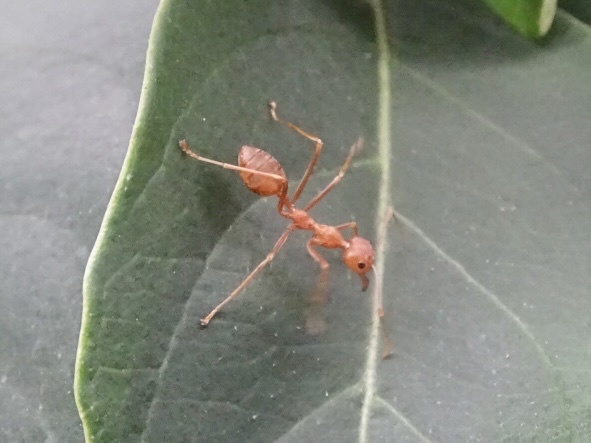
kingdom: Animalia
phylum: Arthropoda
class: Insecta
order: Hymenoptera
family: Formicidae
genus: Oecophylla
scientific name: Oecophylla smaragdina
